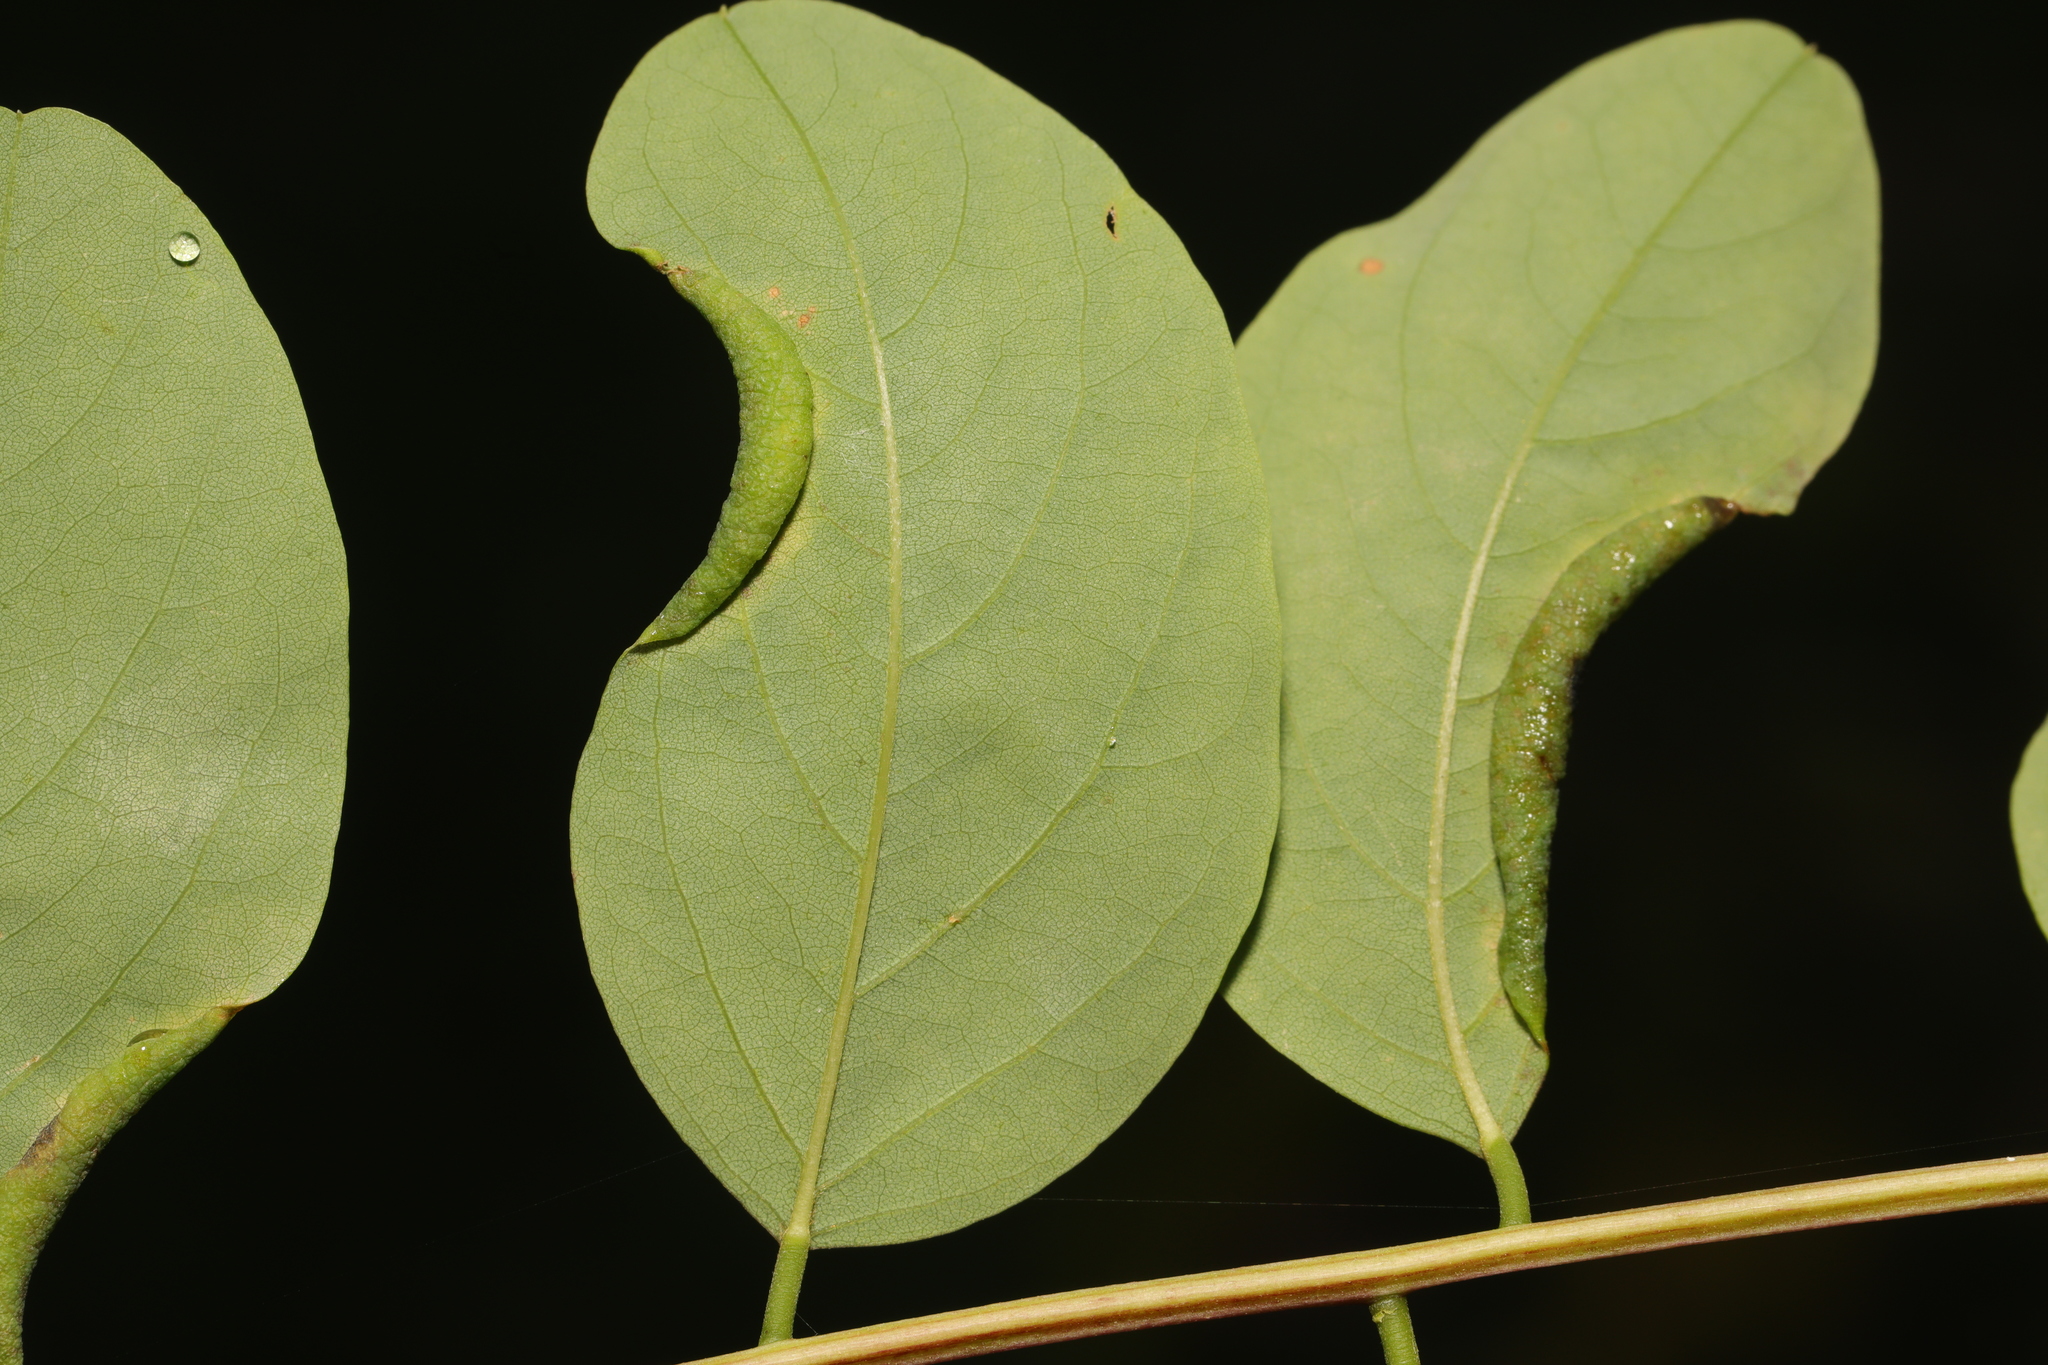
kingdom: Animalia
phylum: Arthropoda
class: Insecta
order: Diptera
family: Cecidomyiidae
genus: Obolodiplosis
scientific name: Obolodiplosis robiniae
